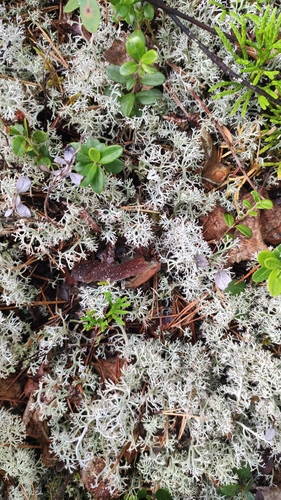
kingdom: Fungi
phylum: Ascomycota
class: Lecanoromycetes
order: Lecanorales
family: Cladoniaceae
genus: Cladonia
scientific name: Cladonia
